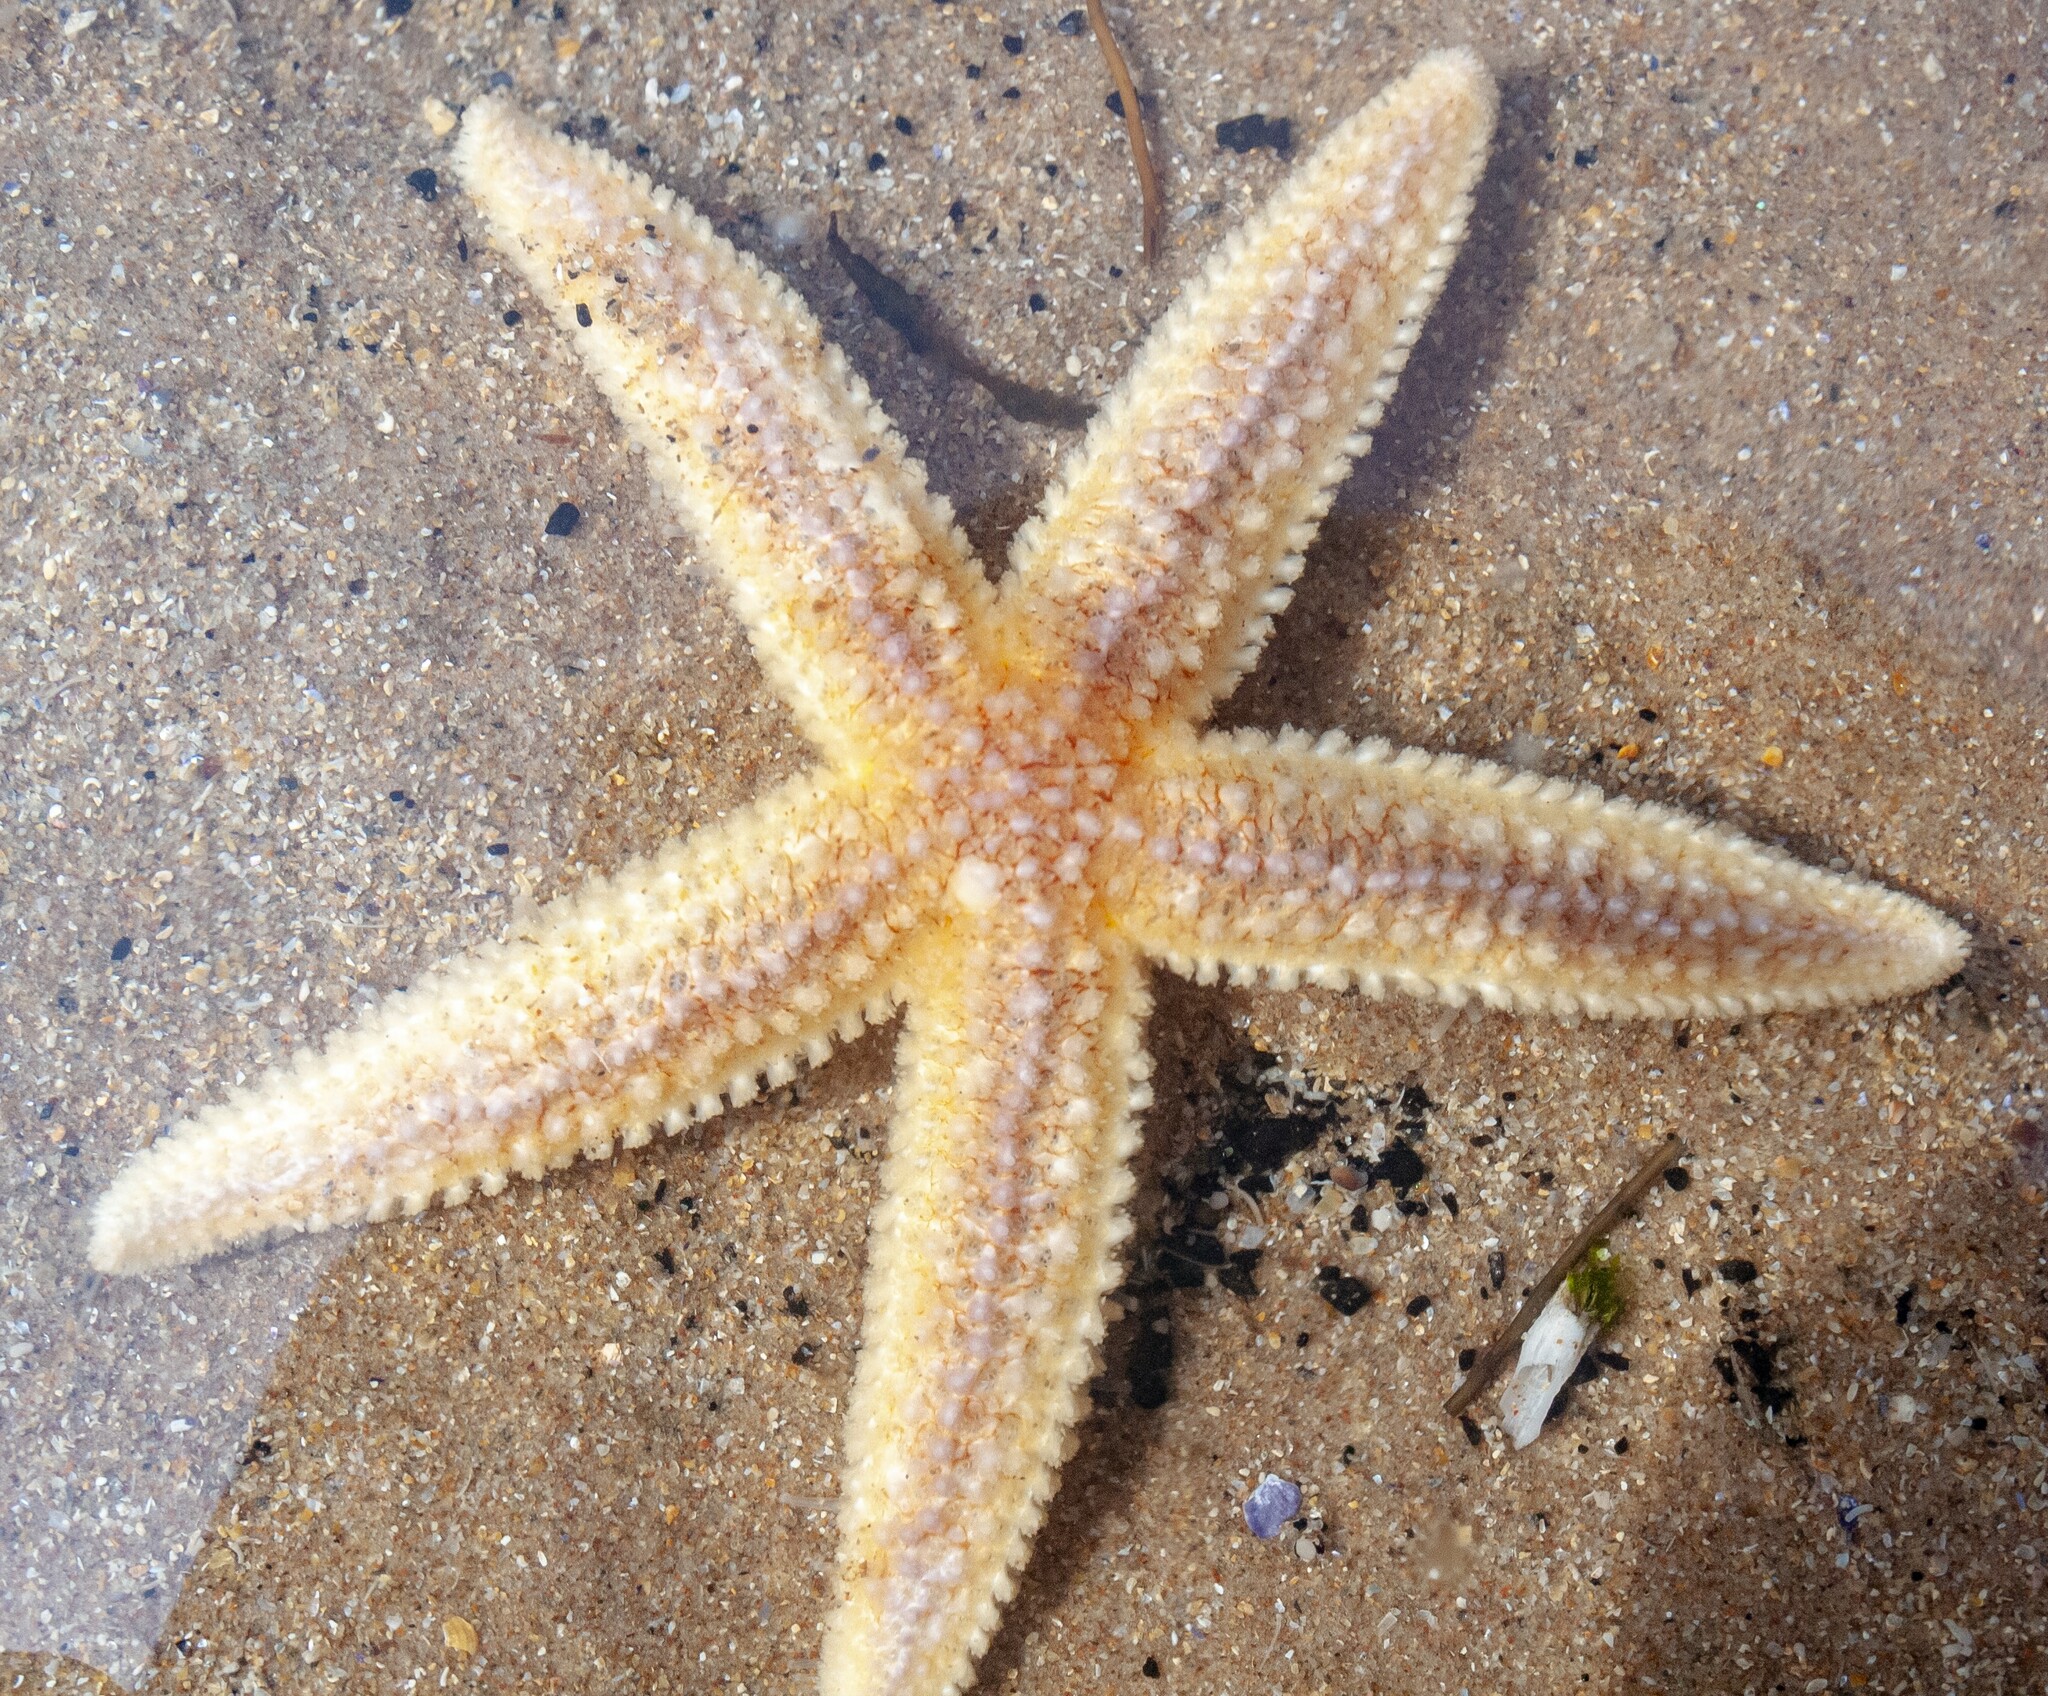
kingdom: Animalia
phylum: Echinodermata
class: Asteroidea
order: Forcipulatida
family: Asteriidae
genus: Asterias
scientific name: Asterias rubens
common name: Common starfish
